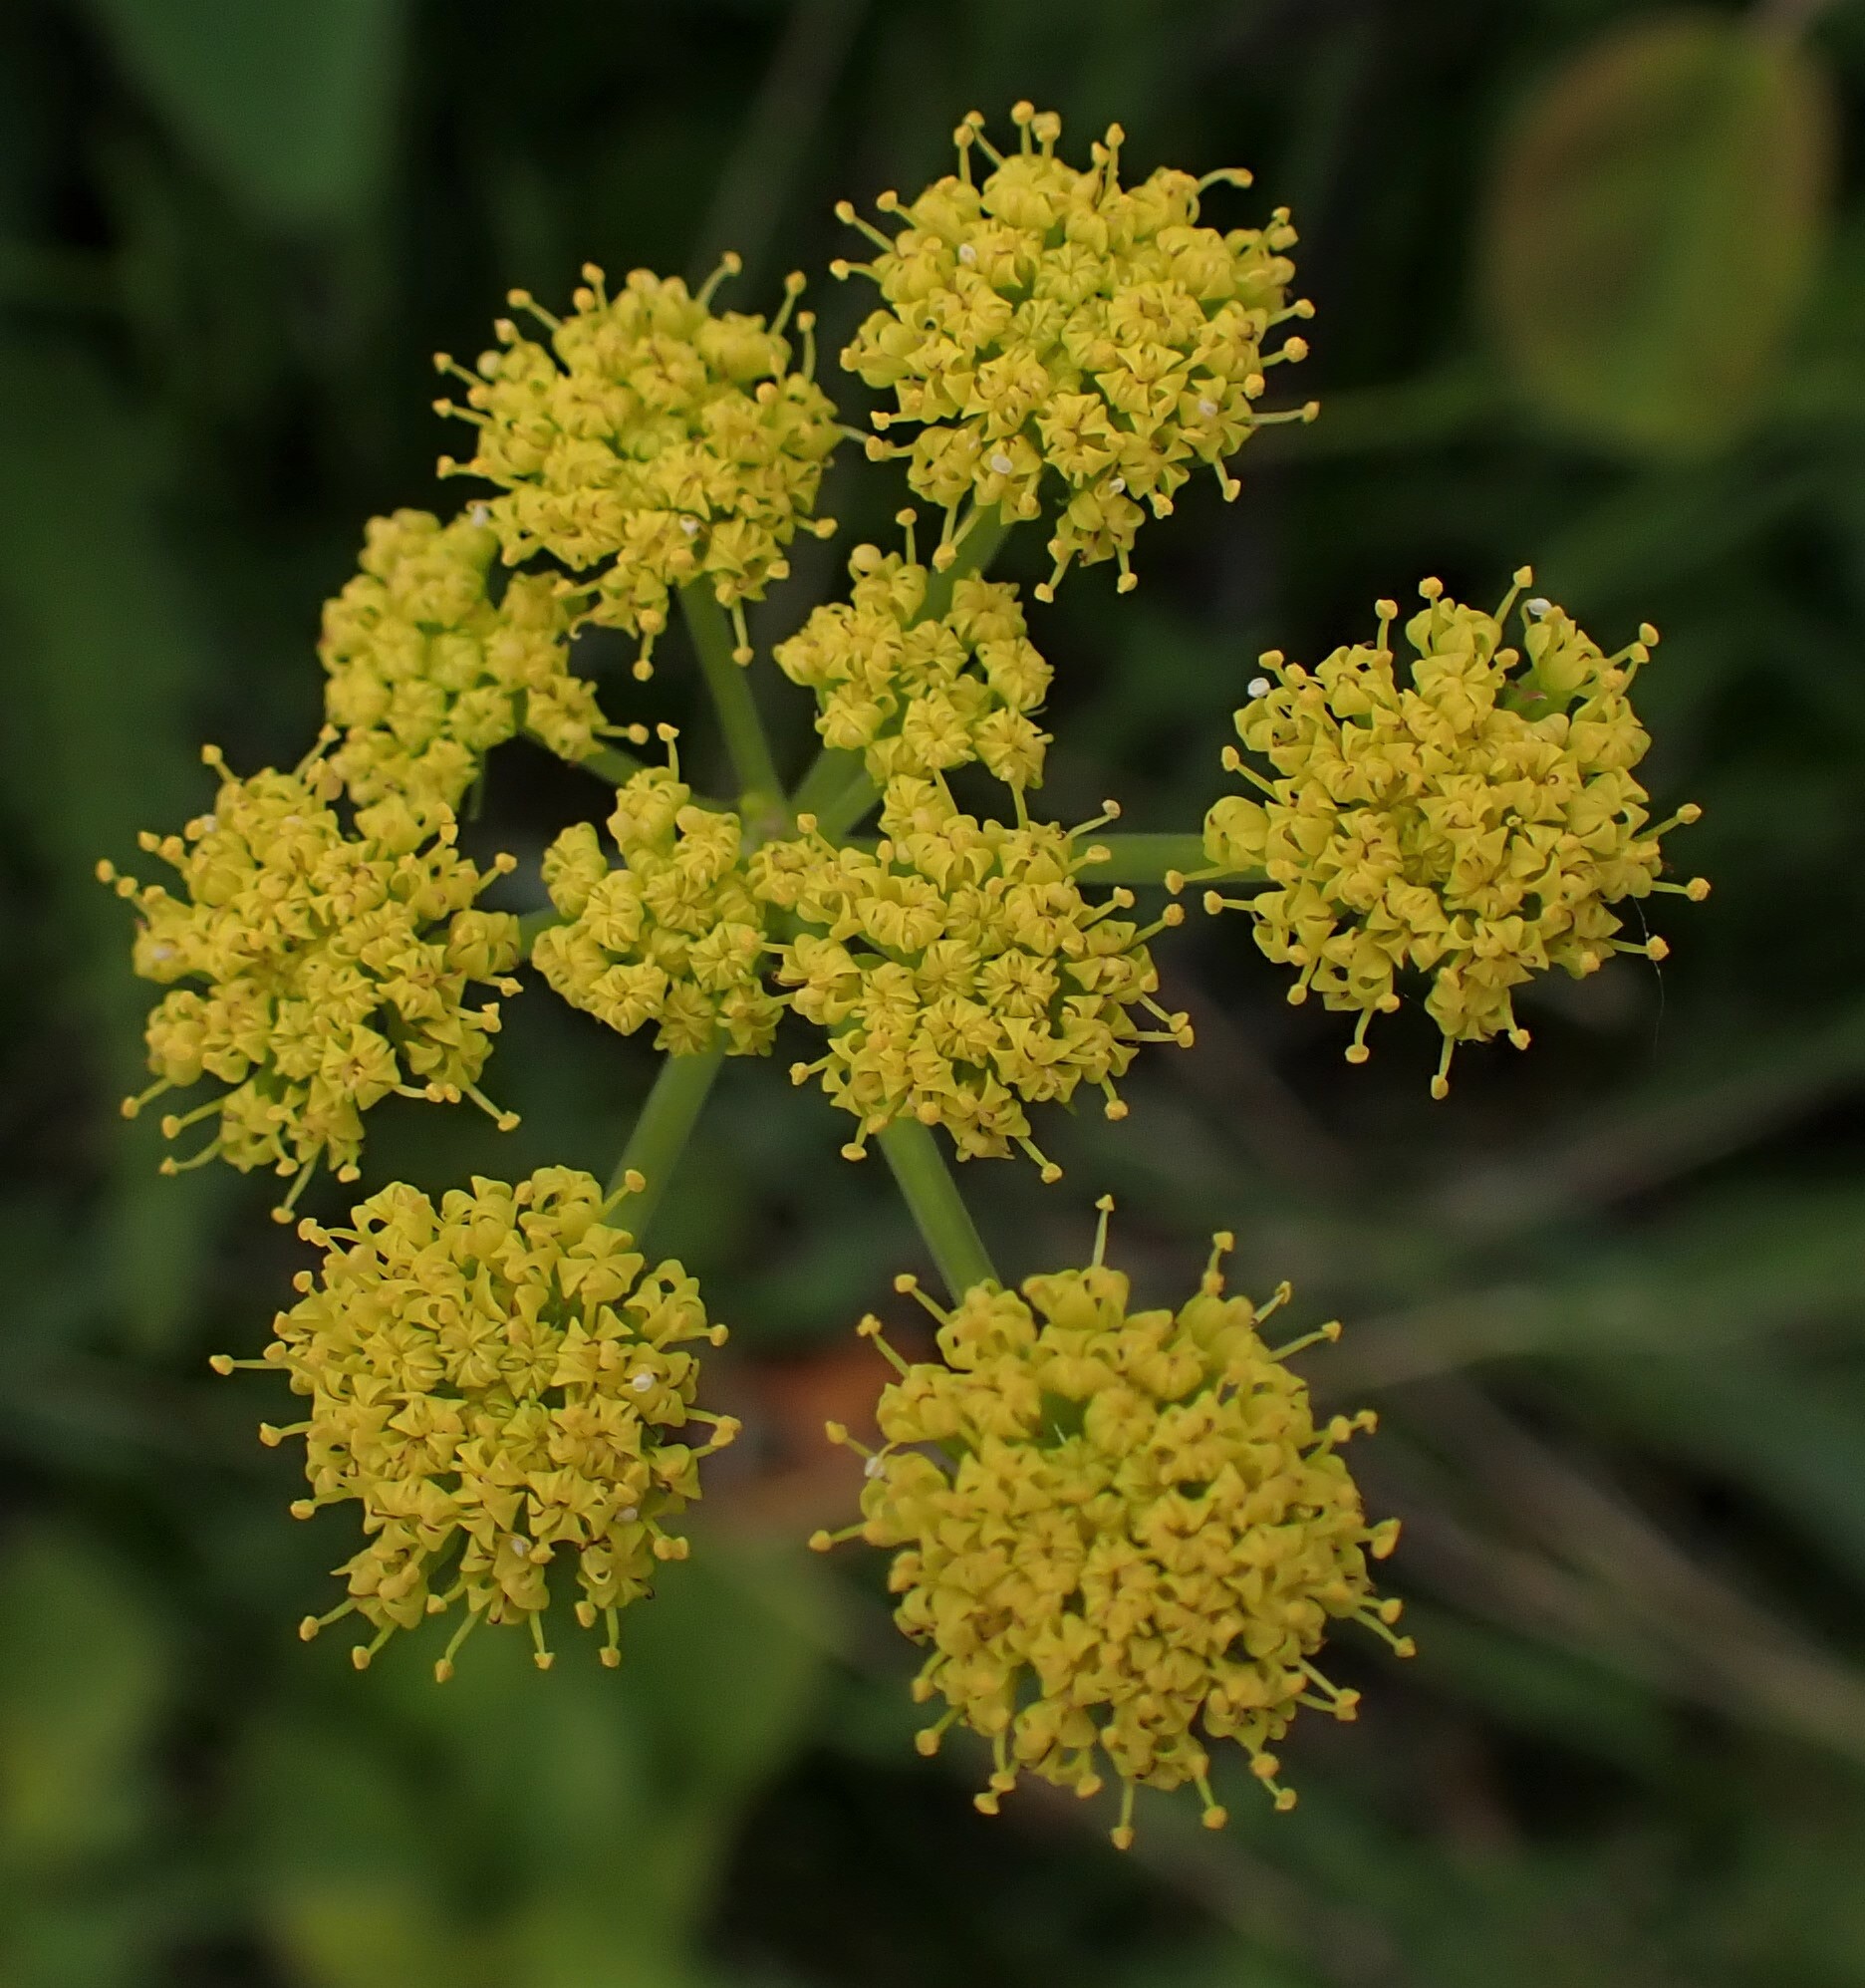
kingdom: Plantae
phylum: Tracheophyta
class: Magnoliopsida
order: Apiales
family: Apiaceae
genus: Lomatium
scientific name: Lomatium
